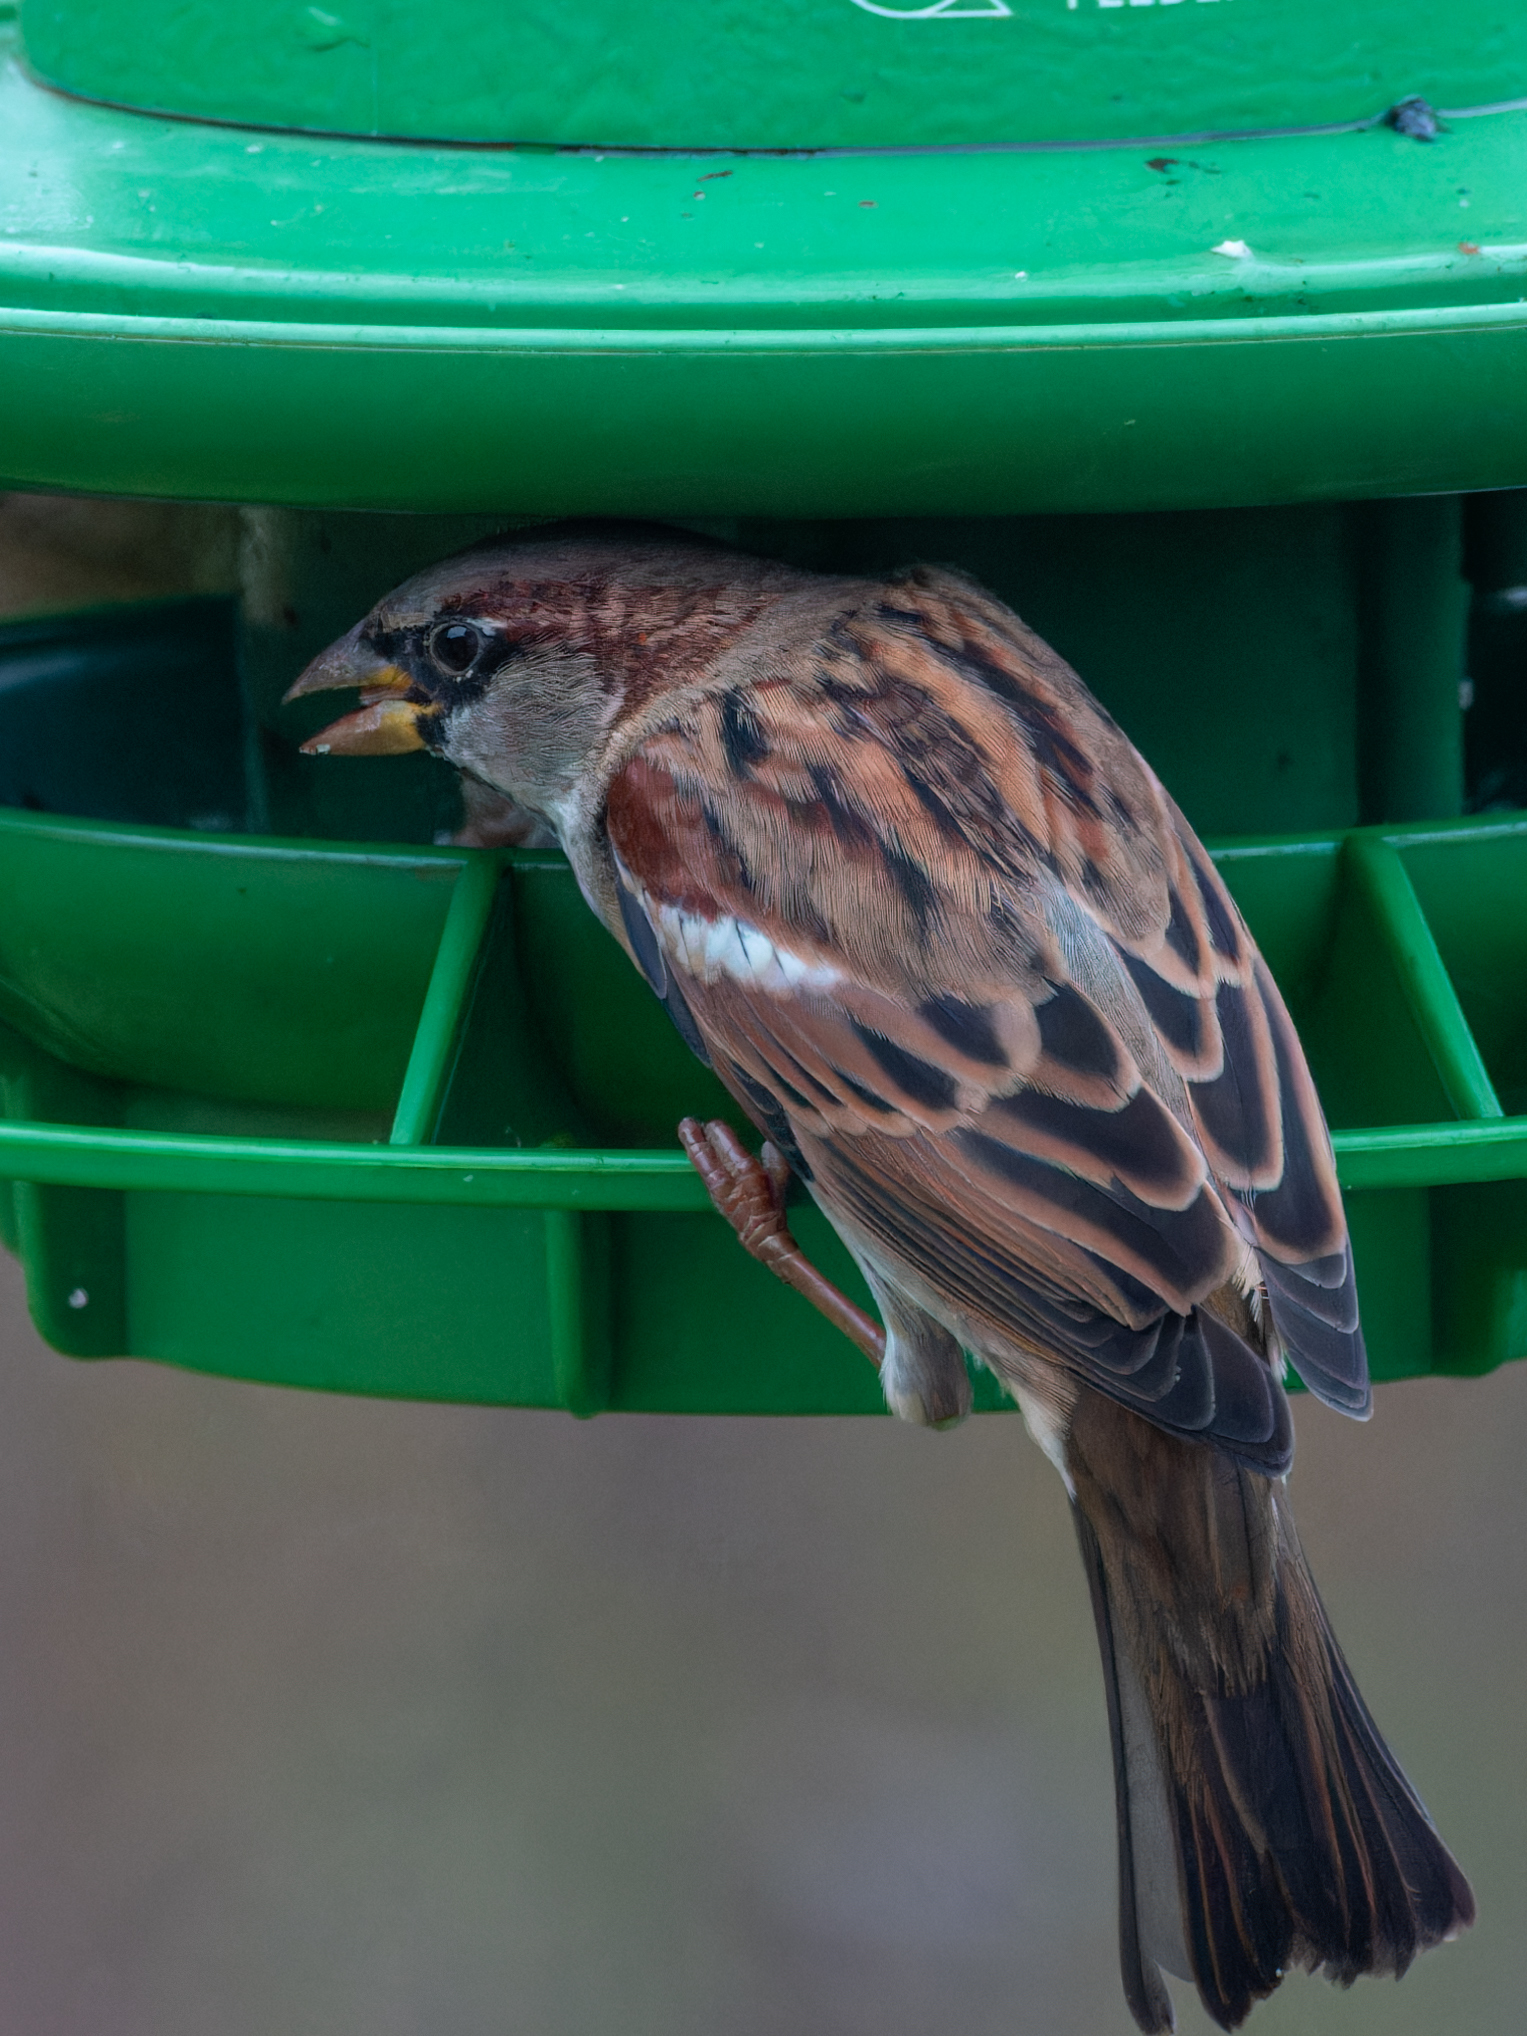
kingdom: Animalia
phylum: Chordata
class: Aves
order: Passeriformes
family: Passeridae
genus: Passer
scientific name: Passer domesticus
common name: House sparrow
